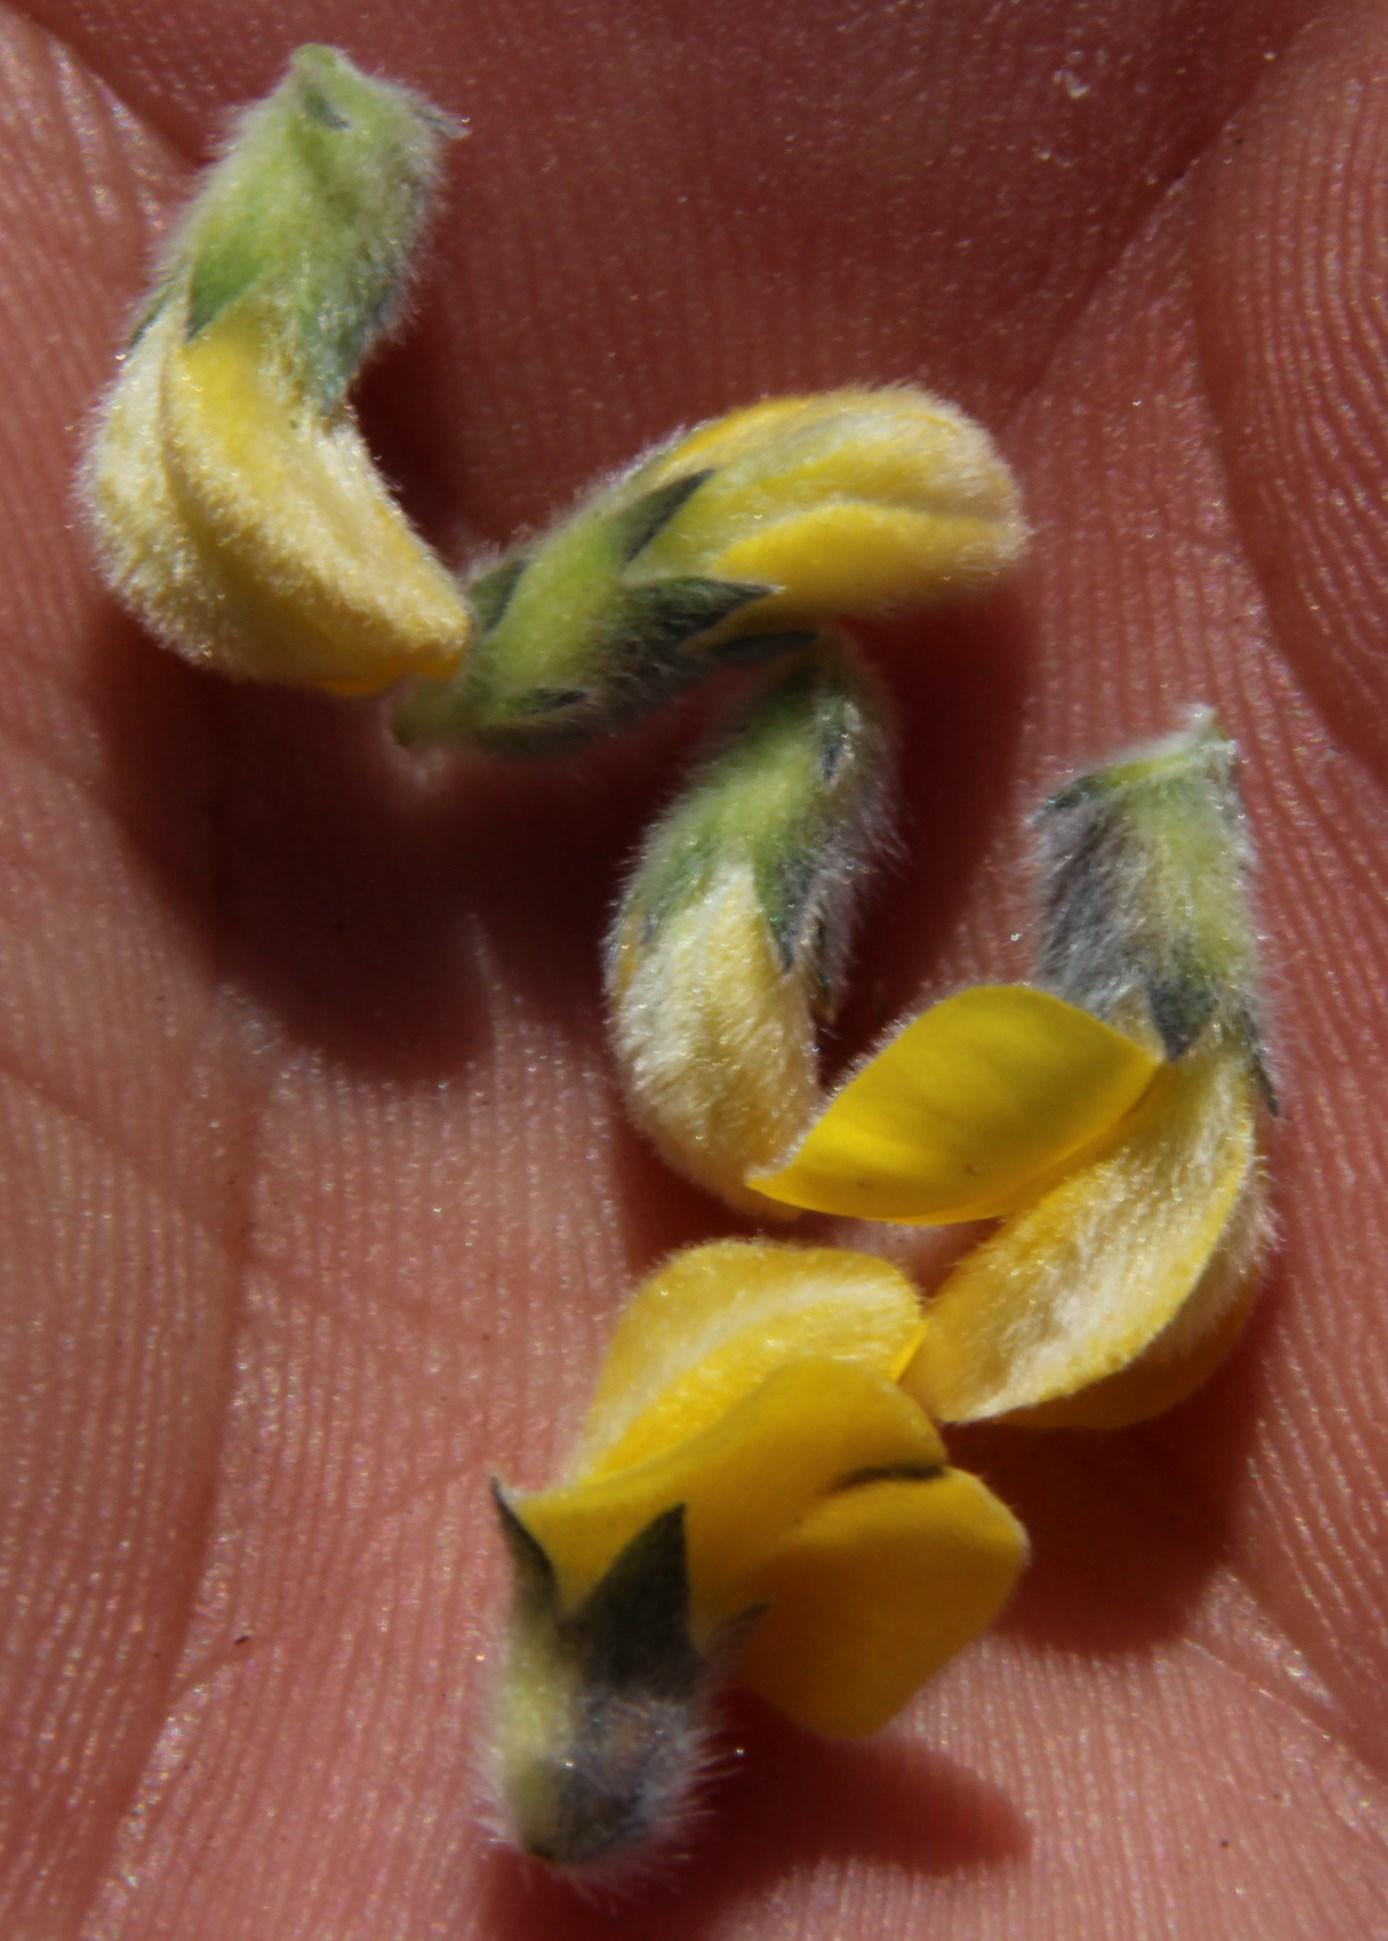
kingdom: Plantae
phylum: Tracheophyta
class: Magnoliopsida
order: Fabales
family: Fabaceae
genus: Aspalathus
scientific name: Aspalathus ramulosa
